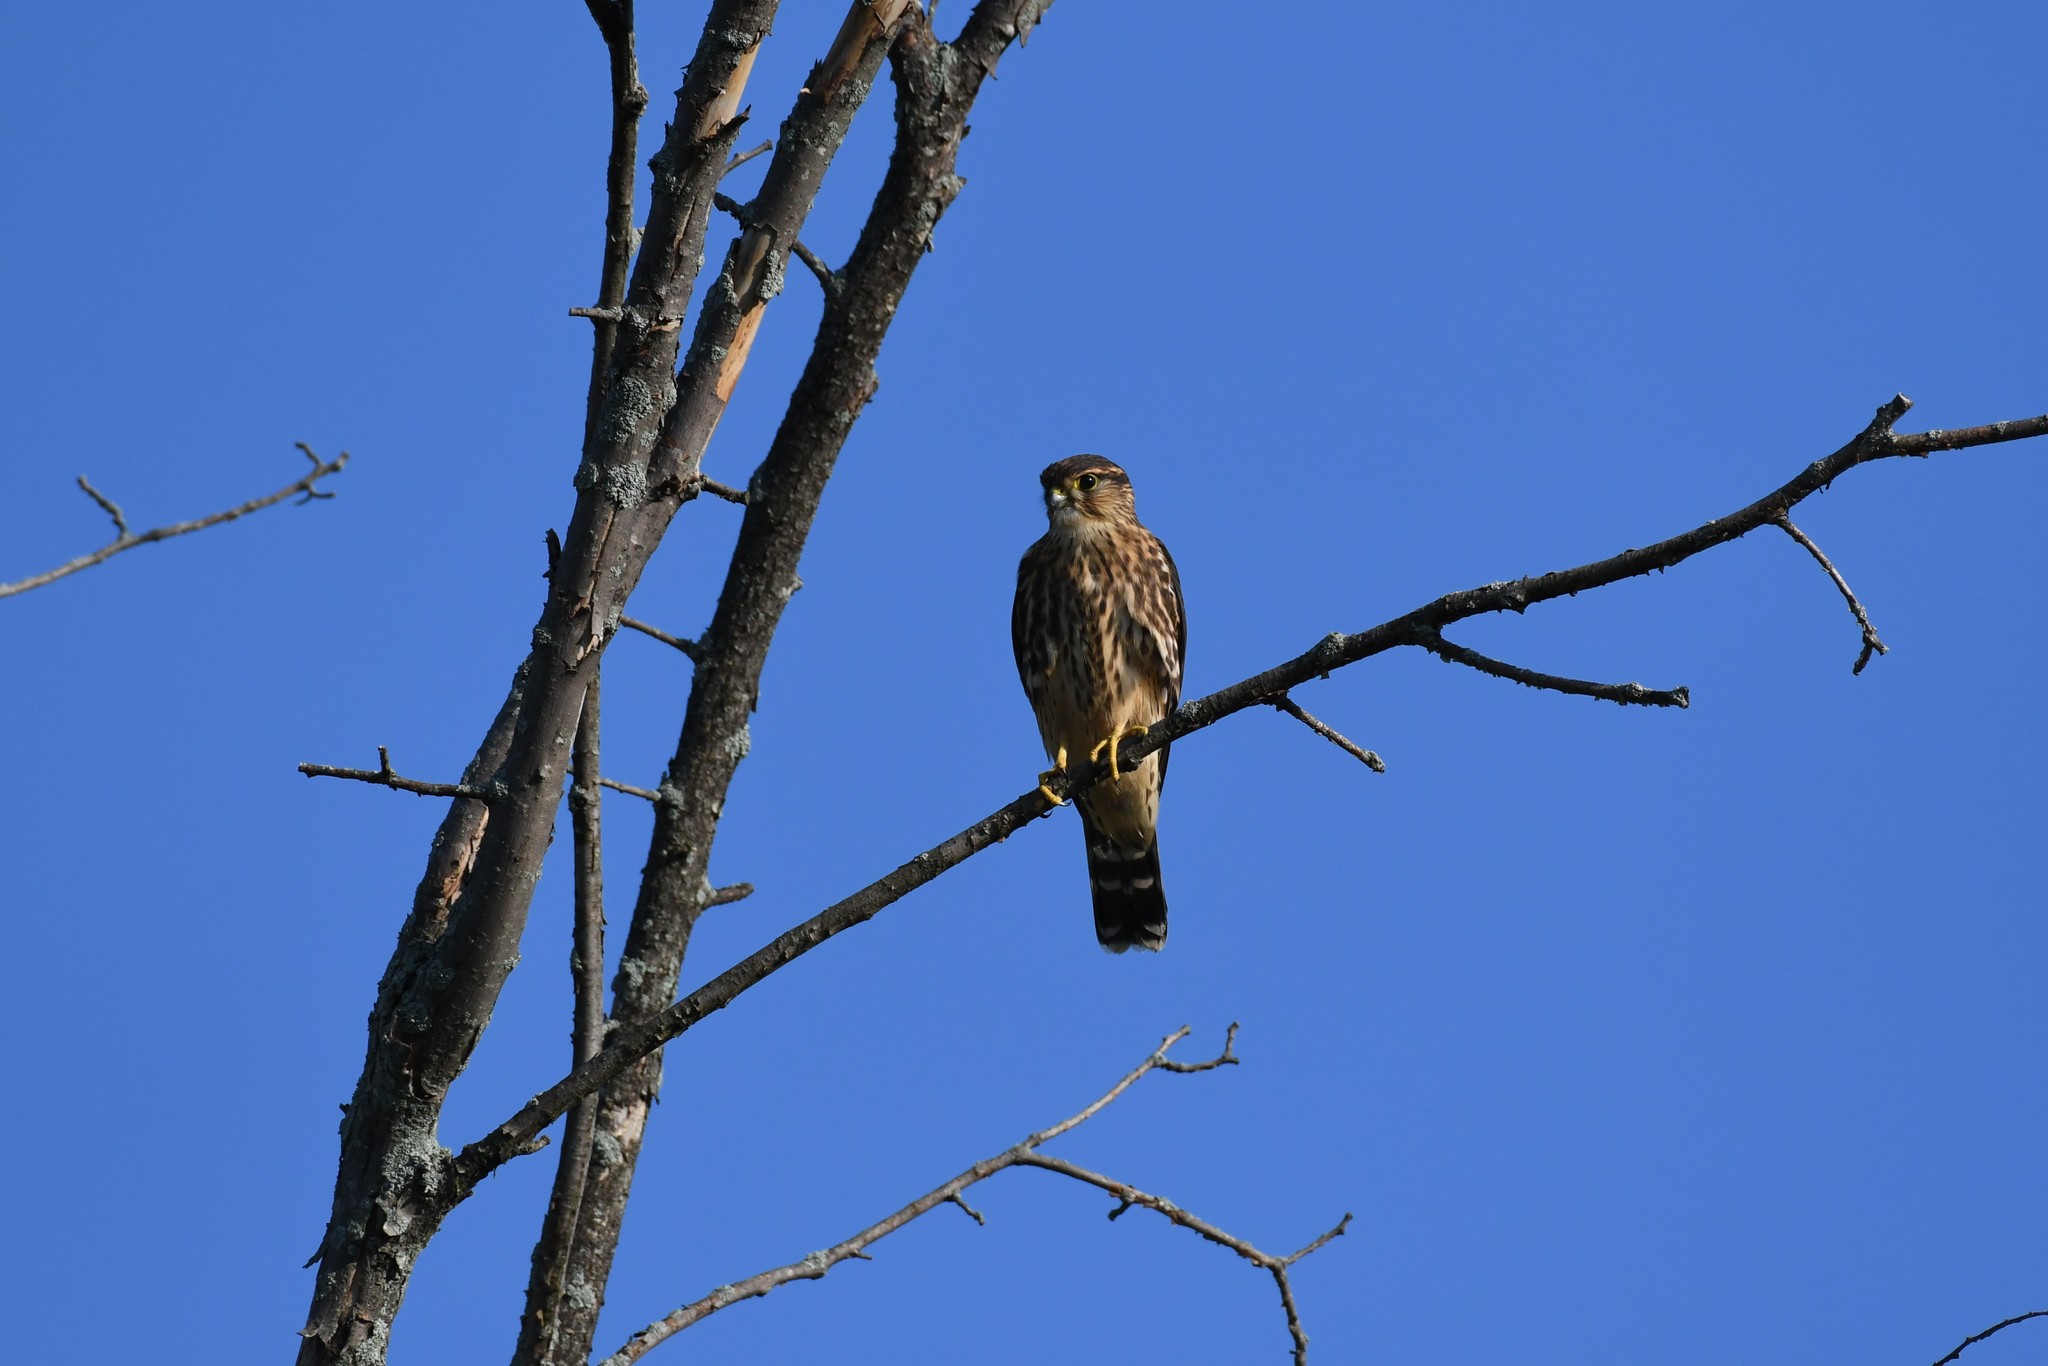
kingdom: Animalia
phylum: Chordata
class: Aves
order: Falconiformes
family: Falconidae
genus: Falco
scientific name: Falco columbarius
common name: Merlin
